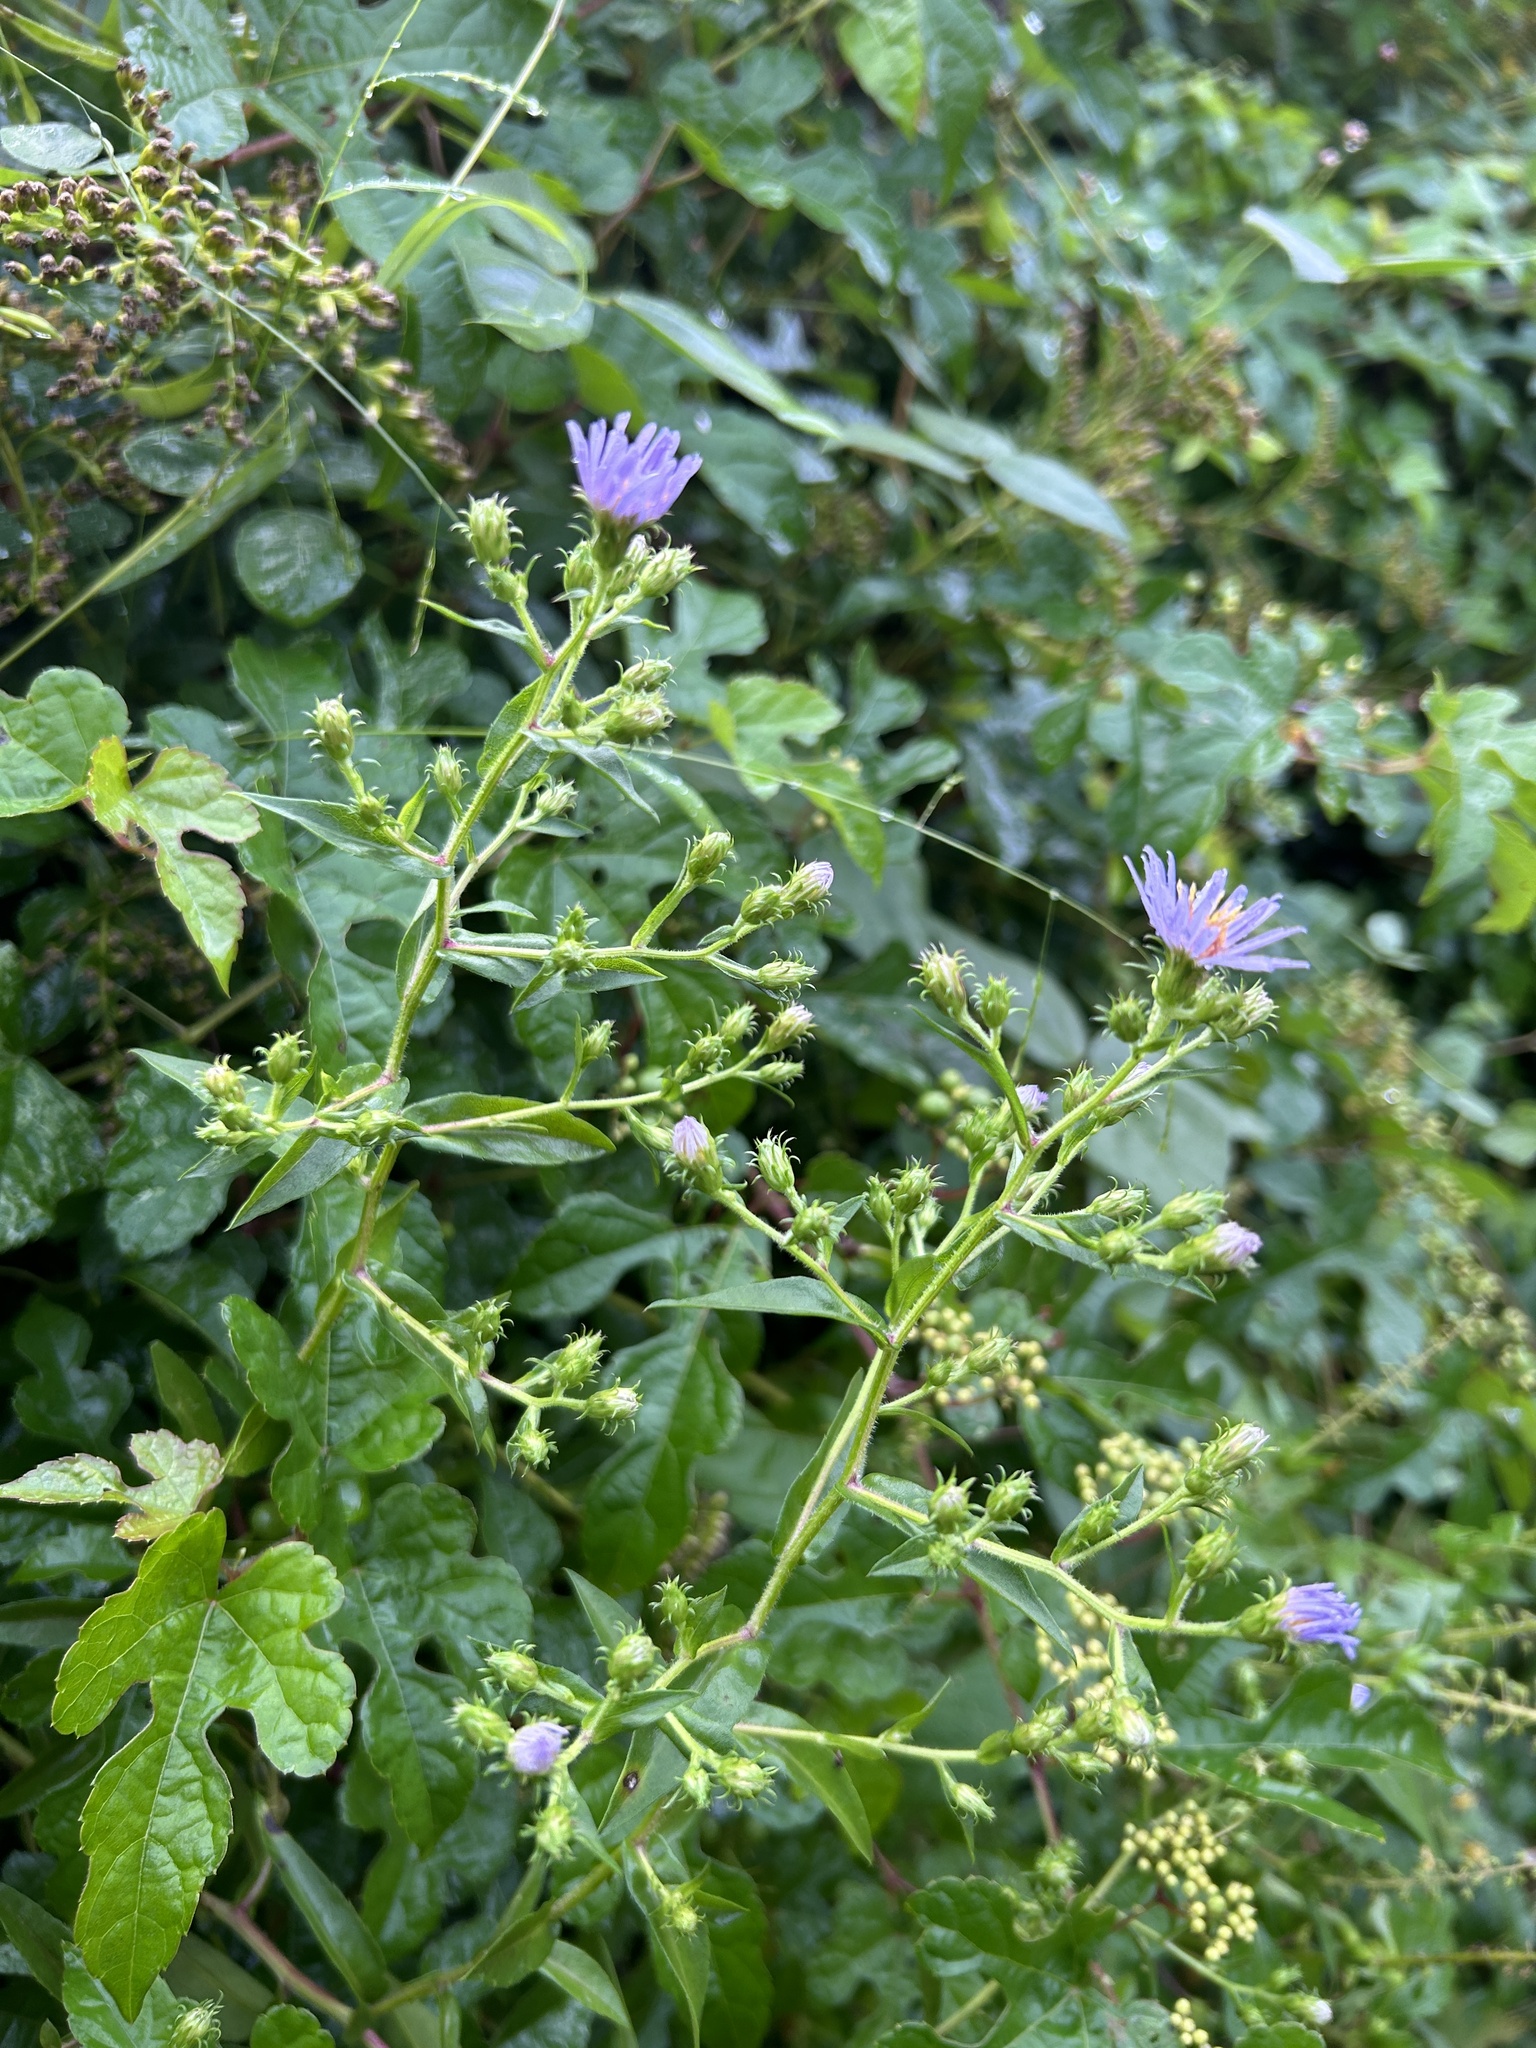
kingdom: Plantae
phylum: Tracheophyta
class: Magnoliopsida
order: Asterales
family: Asteraceae
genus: Symphyotrichum
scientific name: Symphyotrichum puniceum
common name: Bog aster
